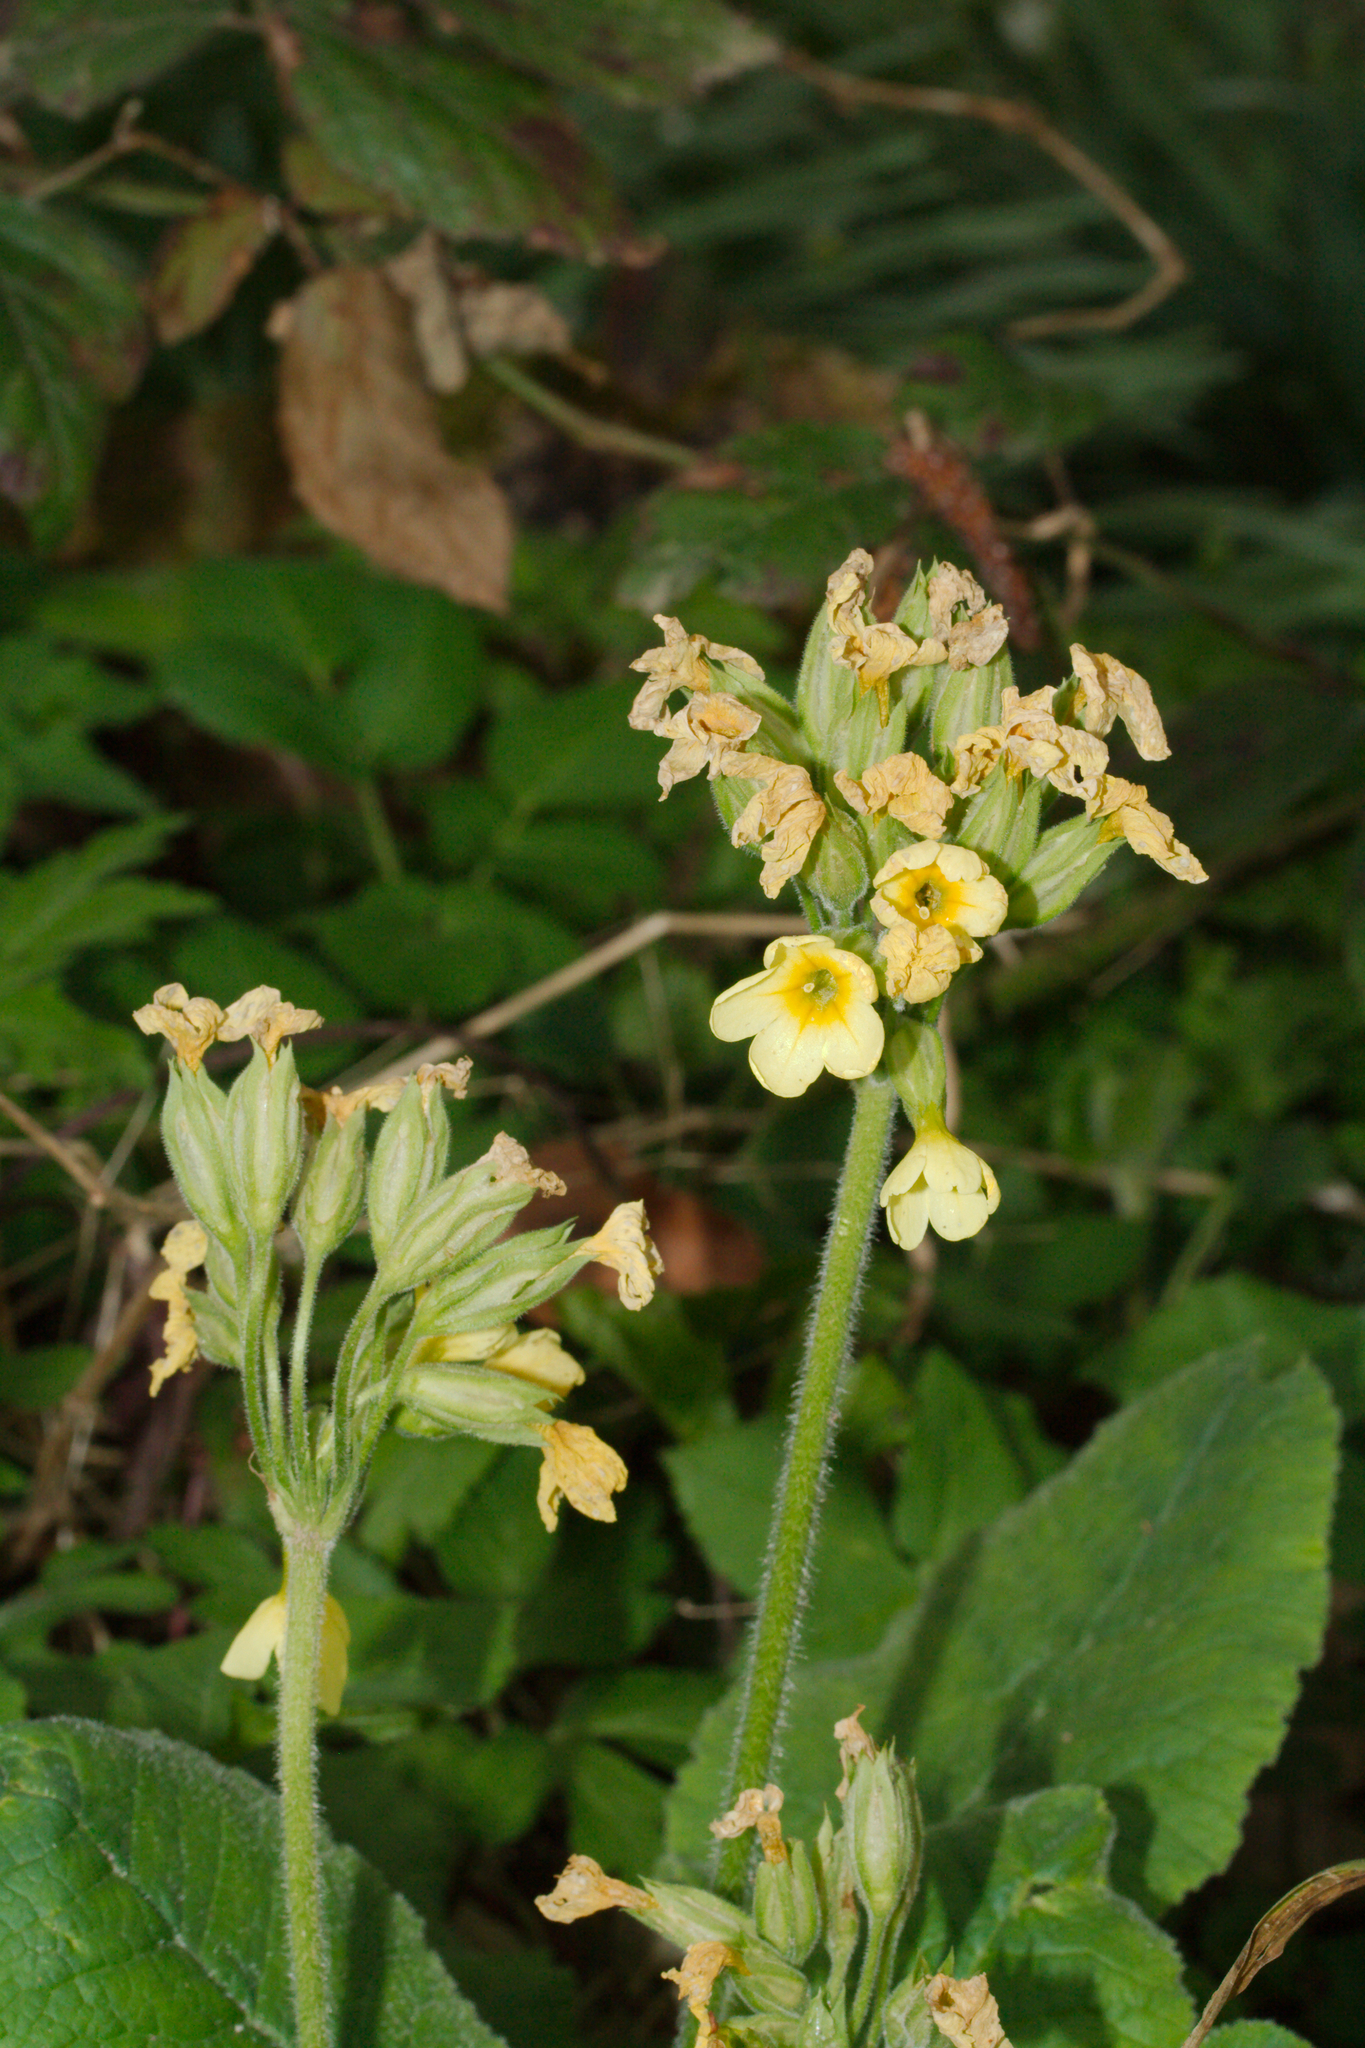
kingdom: Plantae
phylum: Tracheophyta
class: Magnoliopsida
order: Ericales
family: Primulaceae
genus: Primula
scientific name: Primula elatior
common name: Oxlip
